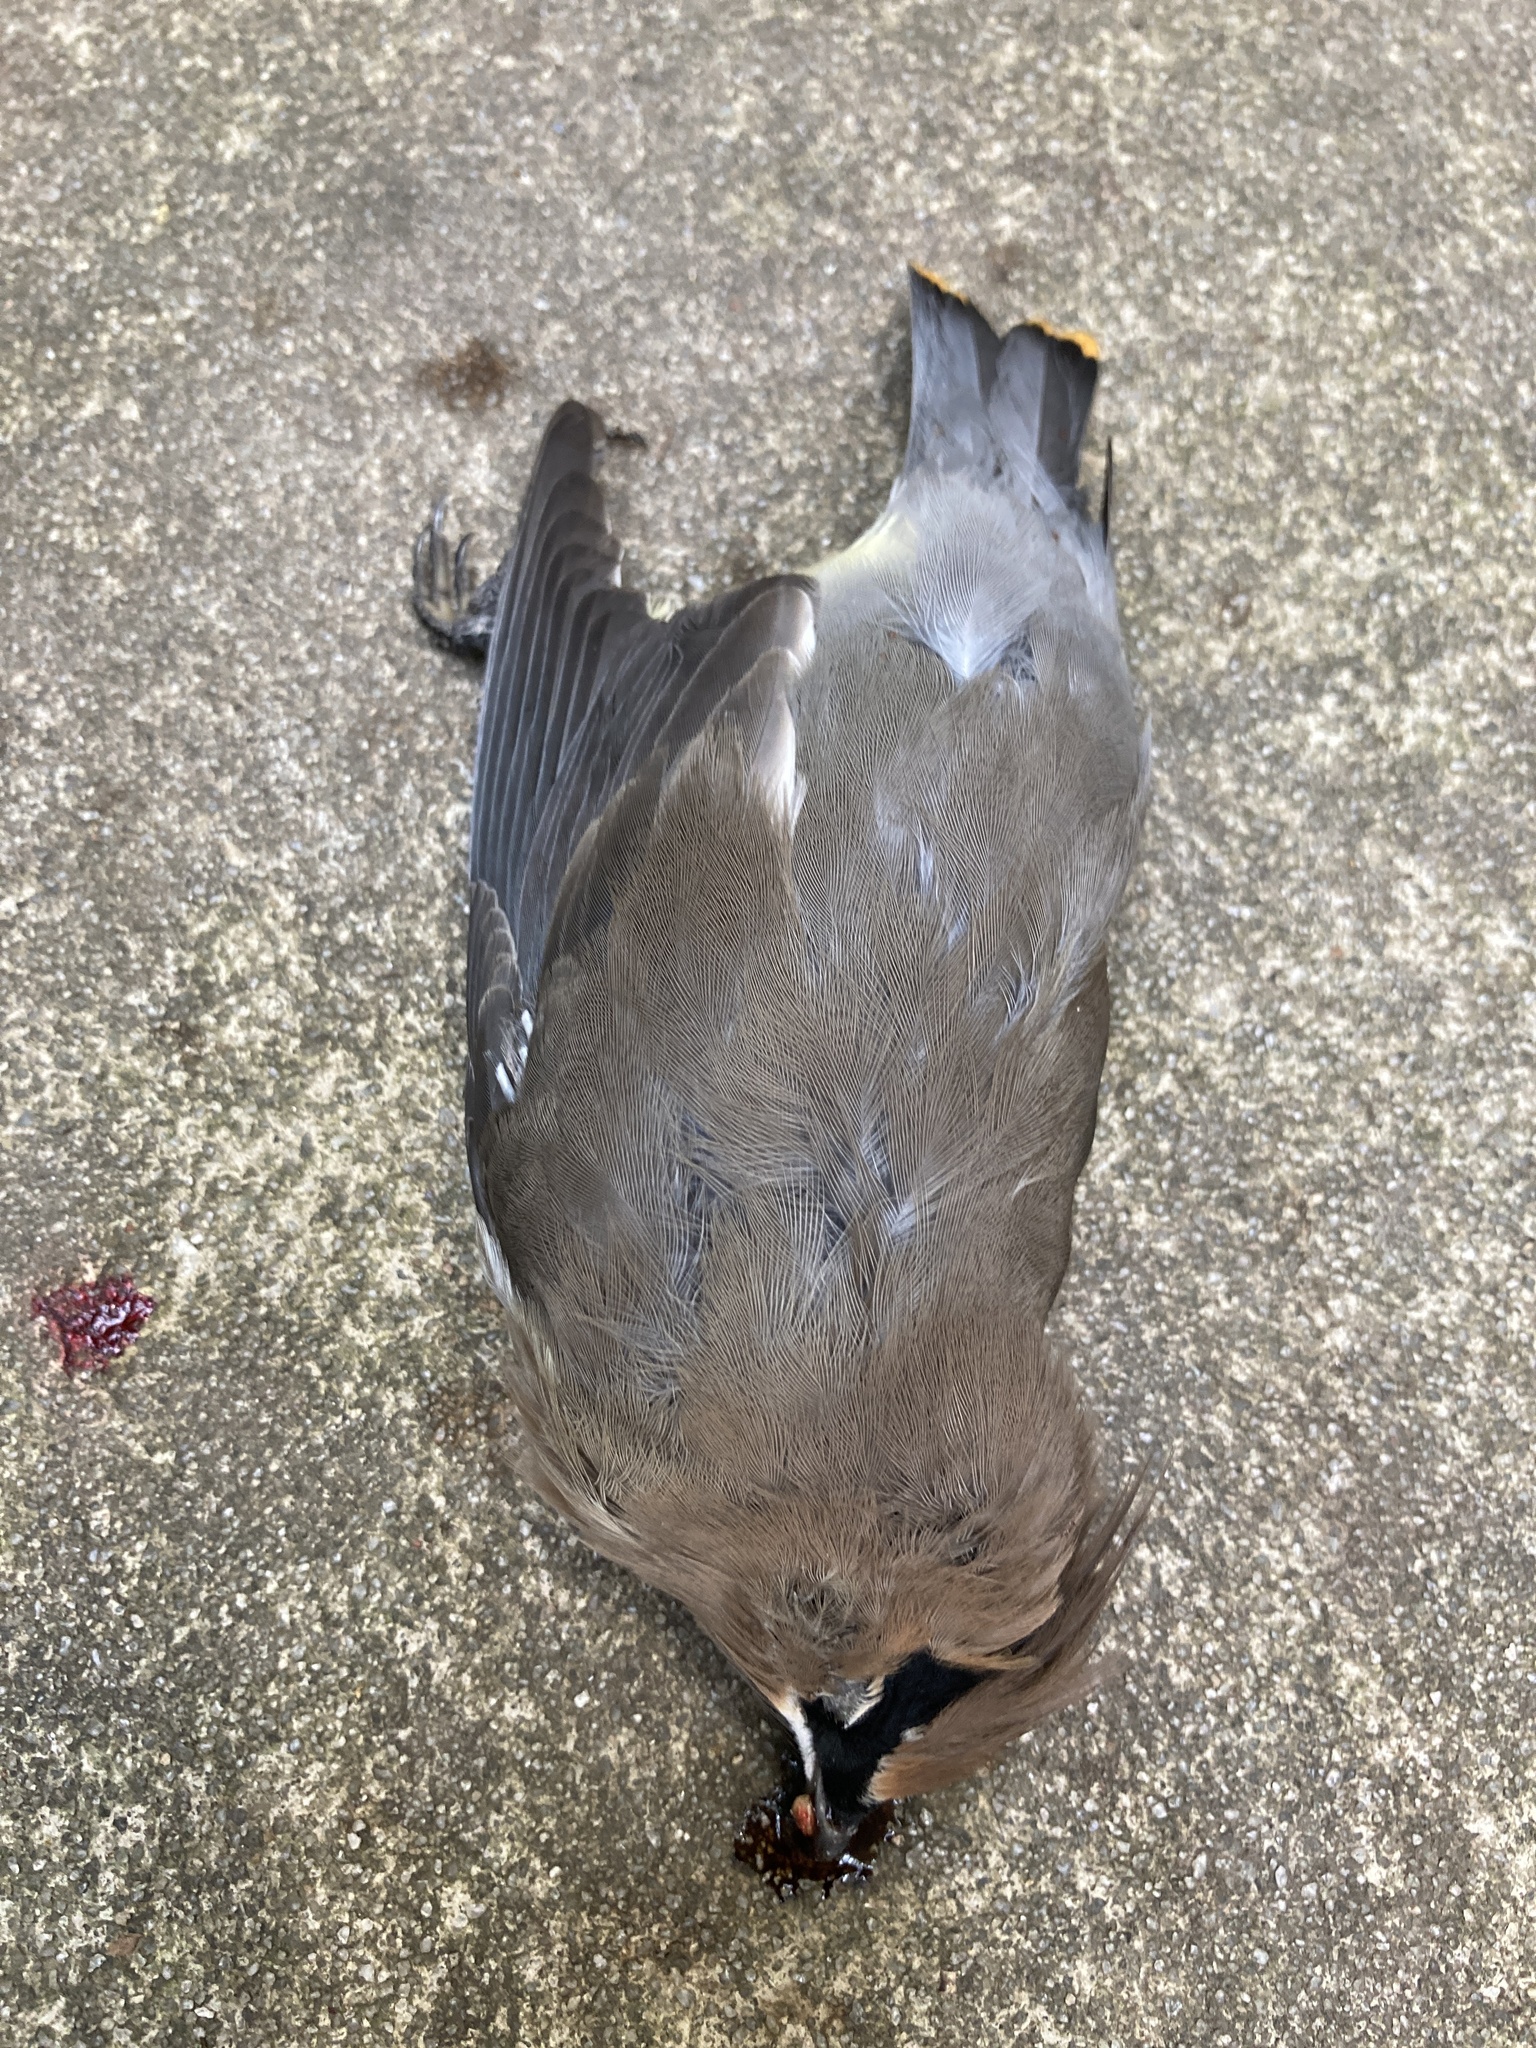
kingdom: Animalia
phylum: Chordata
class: Aves
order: Passeriformes
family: Bombycillidae
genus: Bombycilla
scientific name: Bombycilla cedrorum
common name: Cedar waxwing
